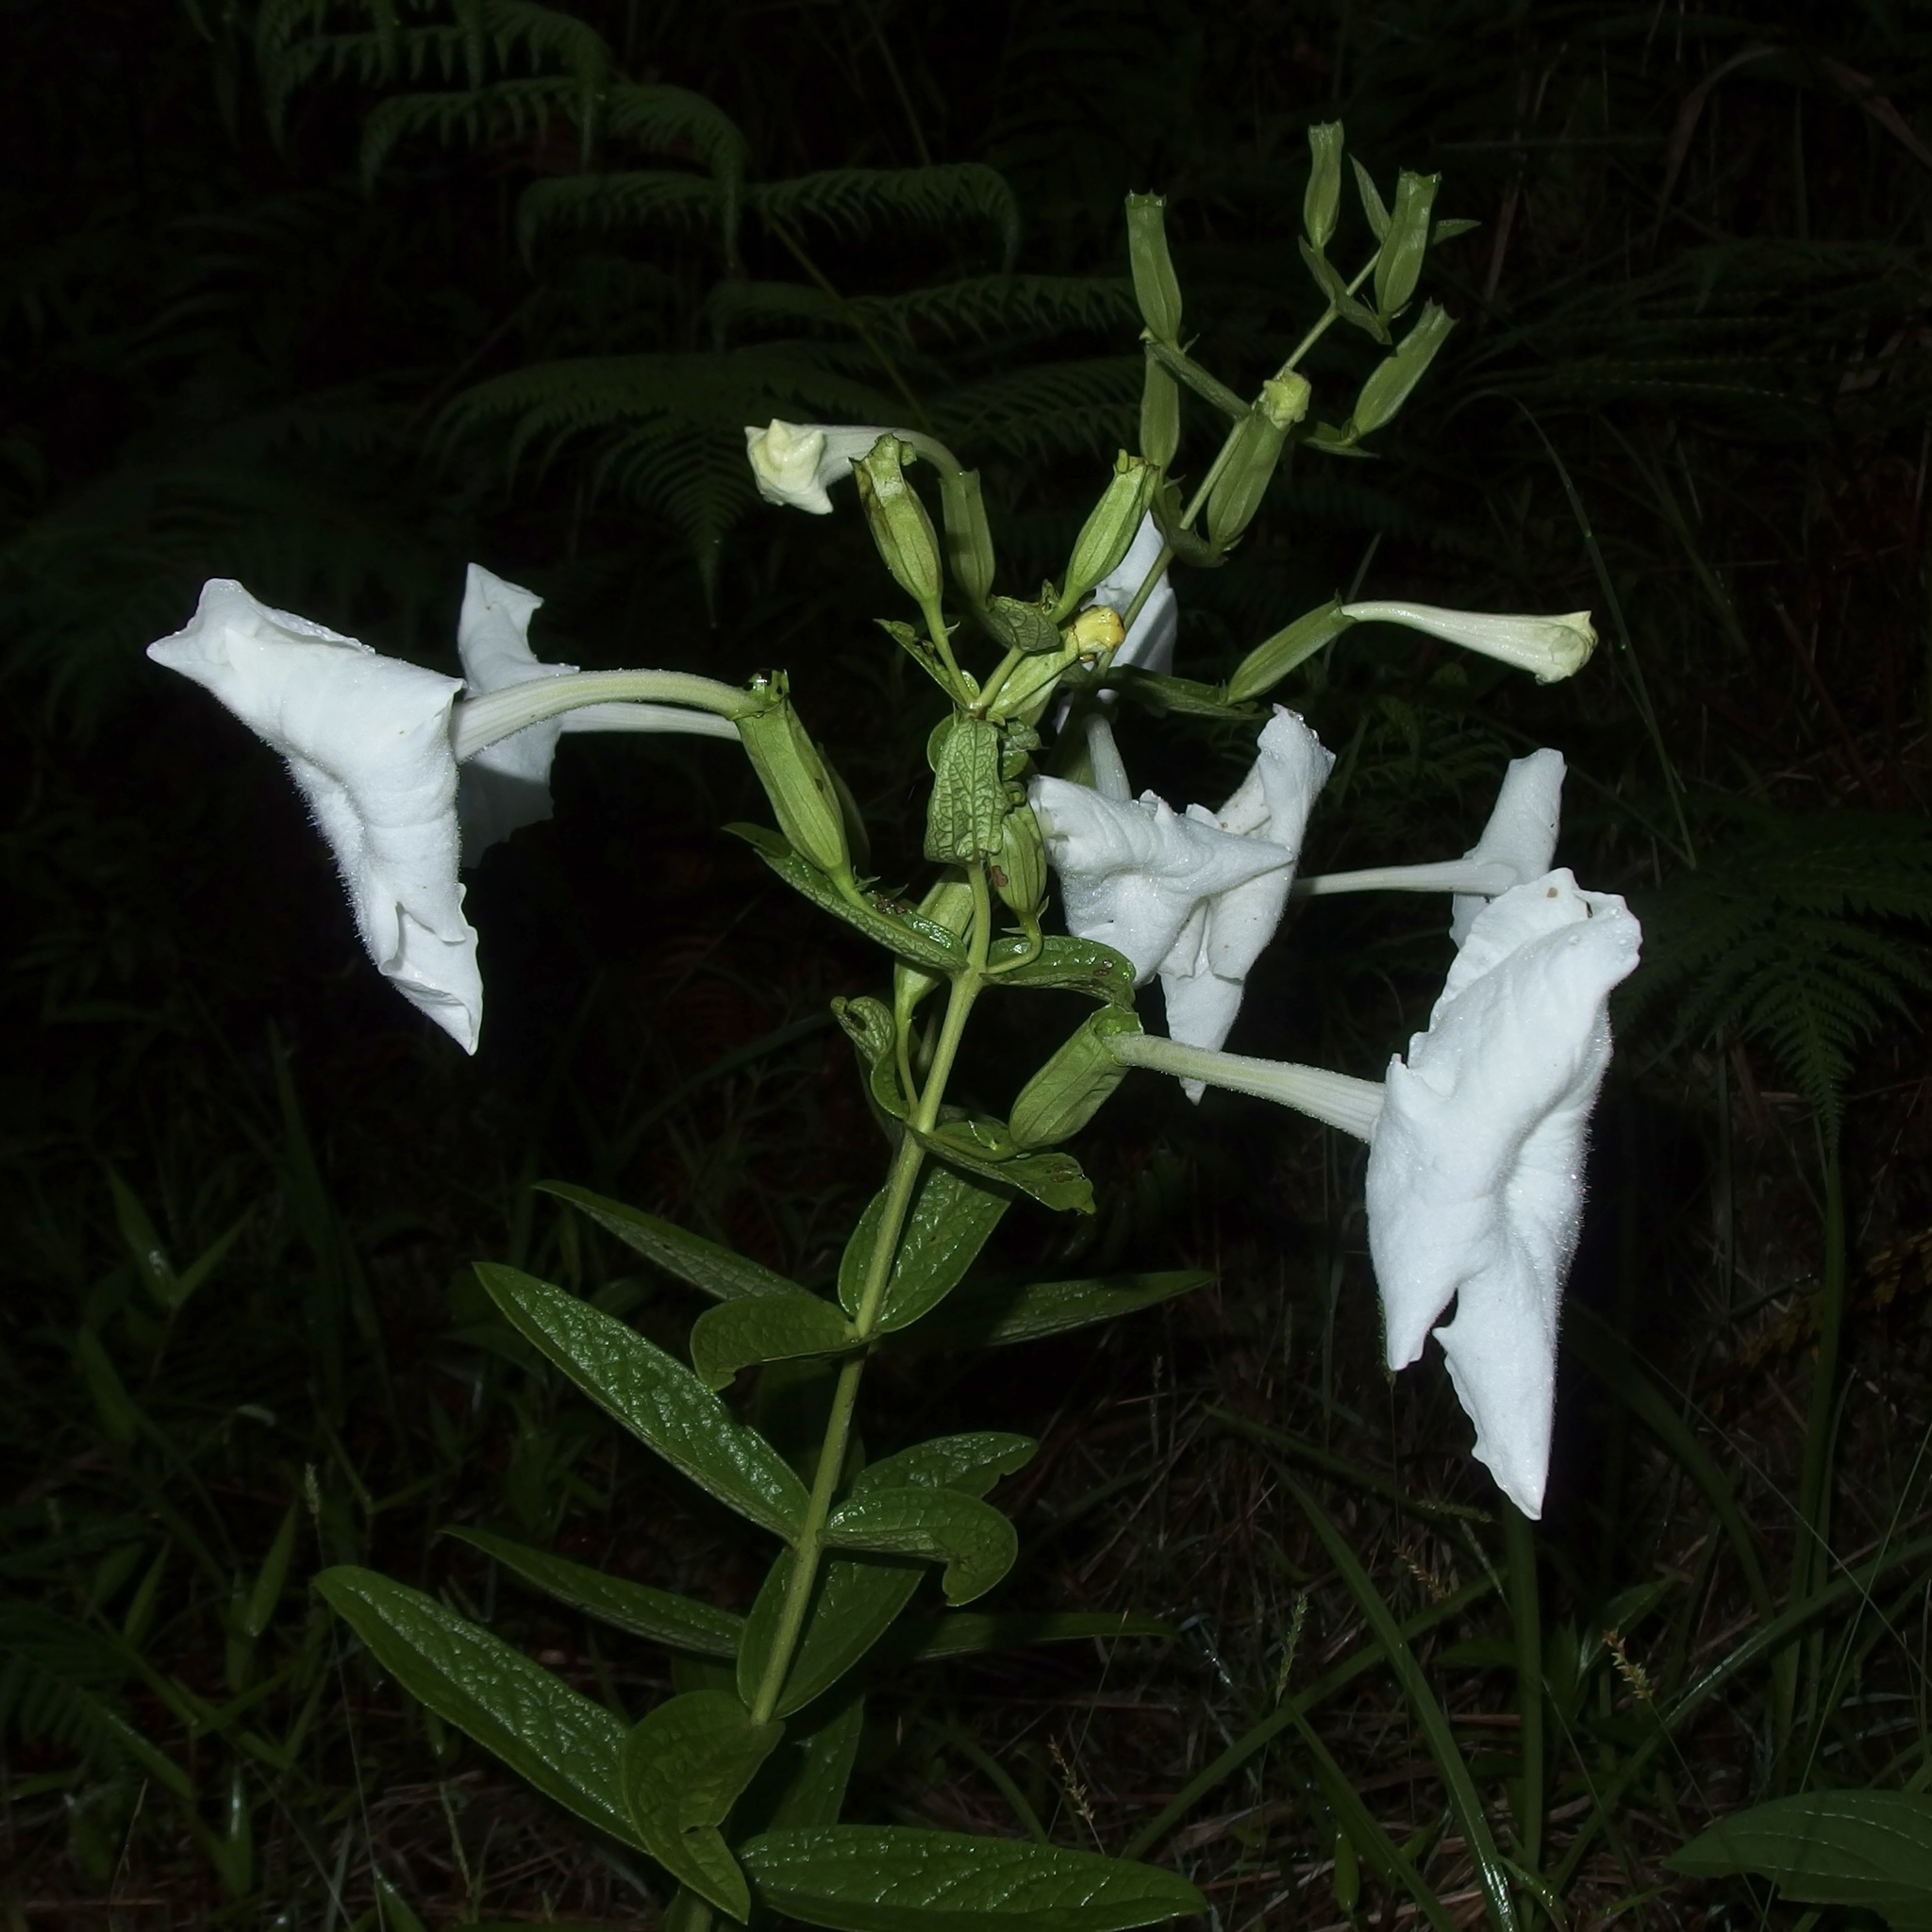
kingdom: Plantae
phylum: Tracheophyta
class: Magnoliopsida
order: Lamiales
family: Orobanchaceae
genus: Escobedia
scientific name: Escobedia grandiflora
